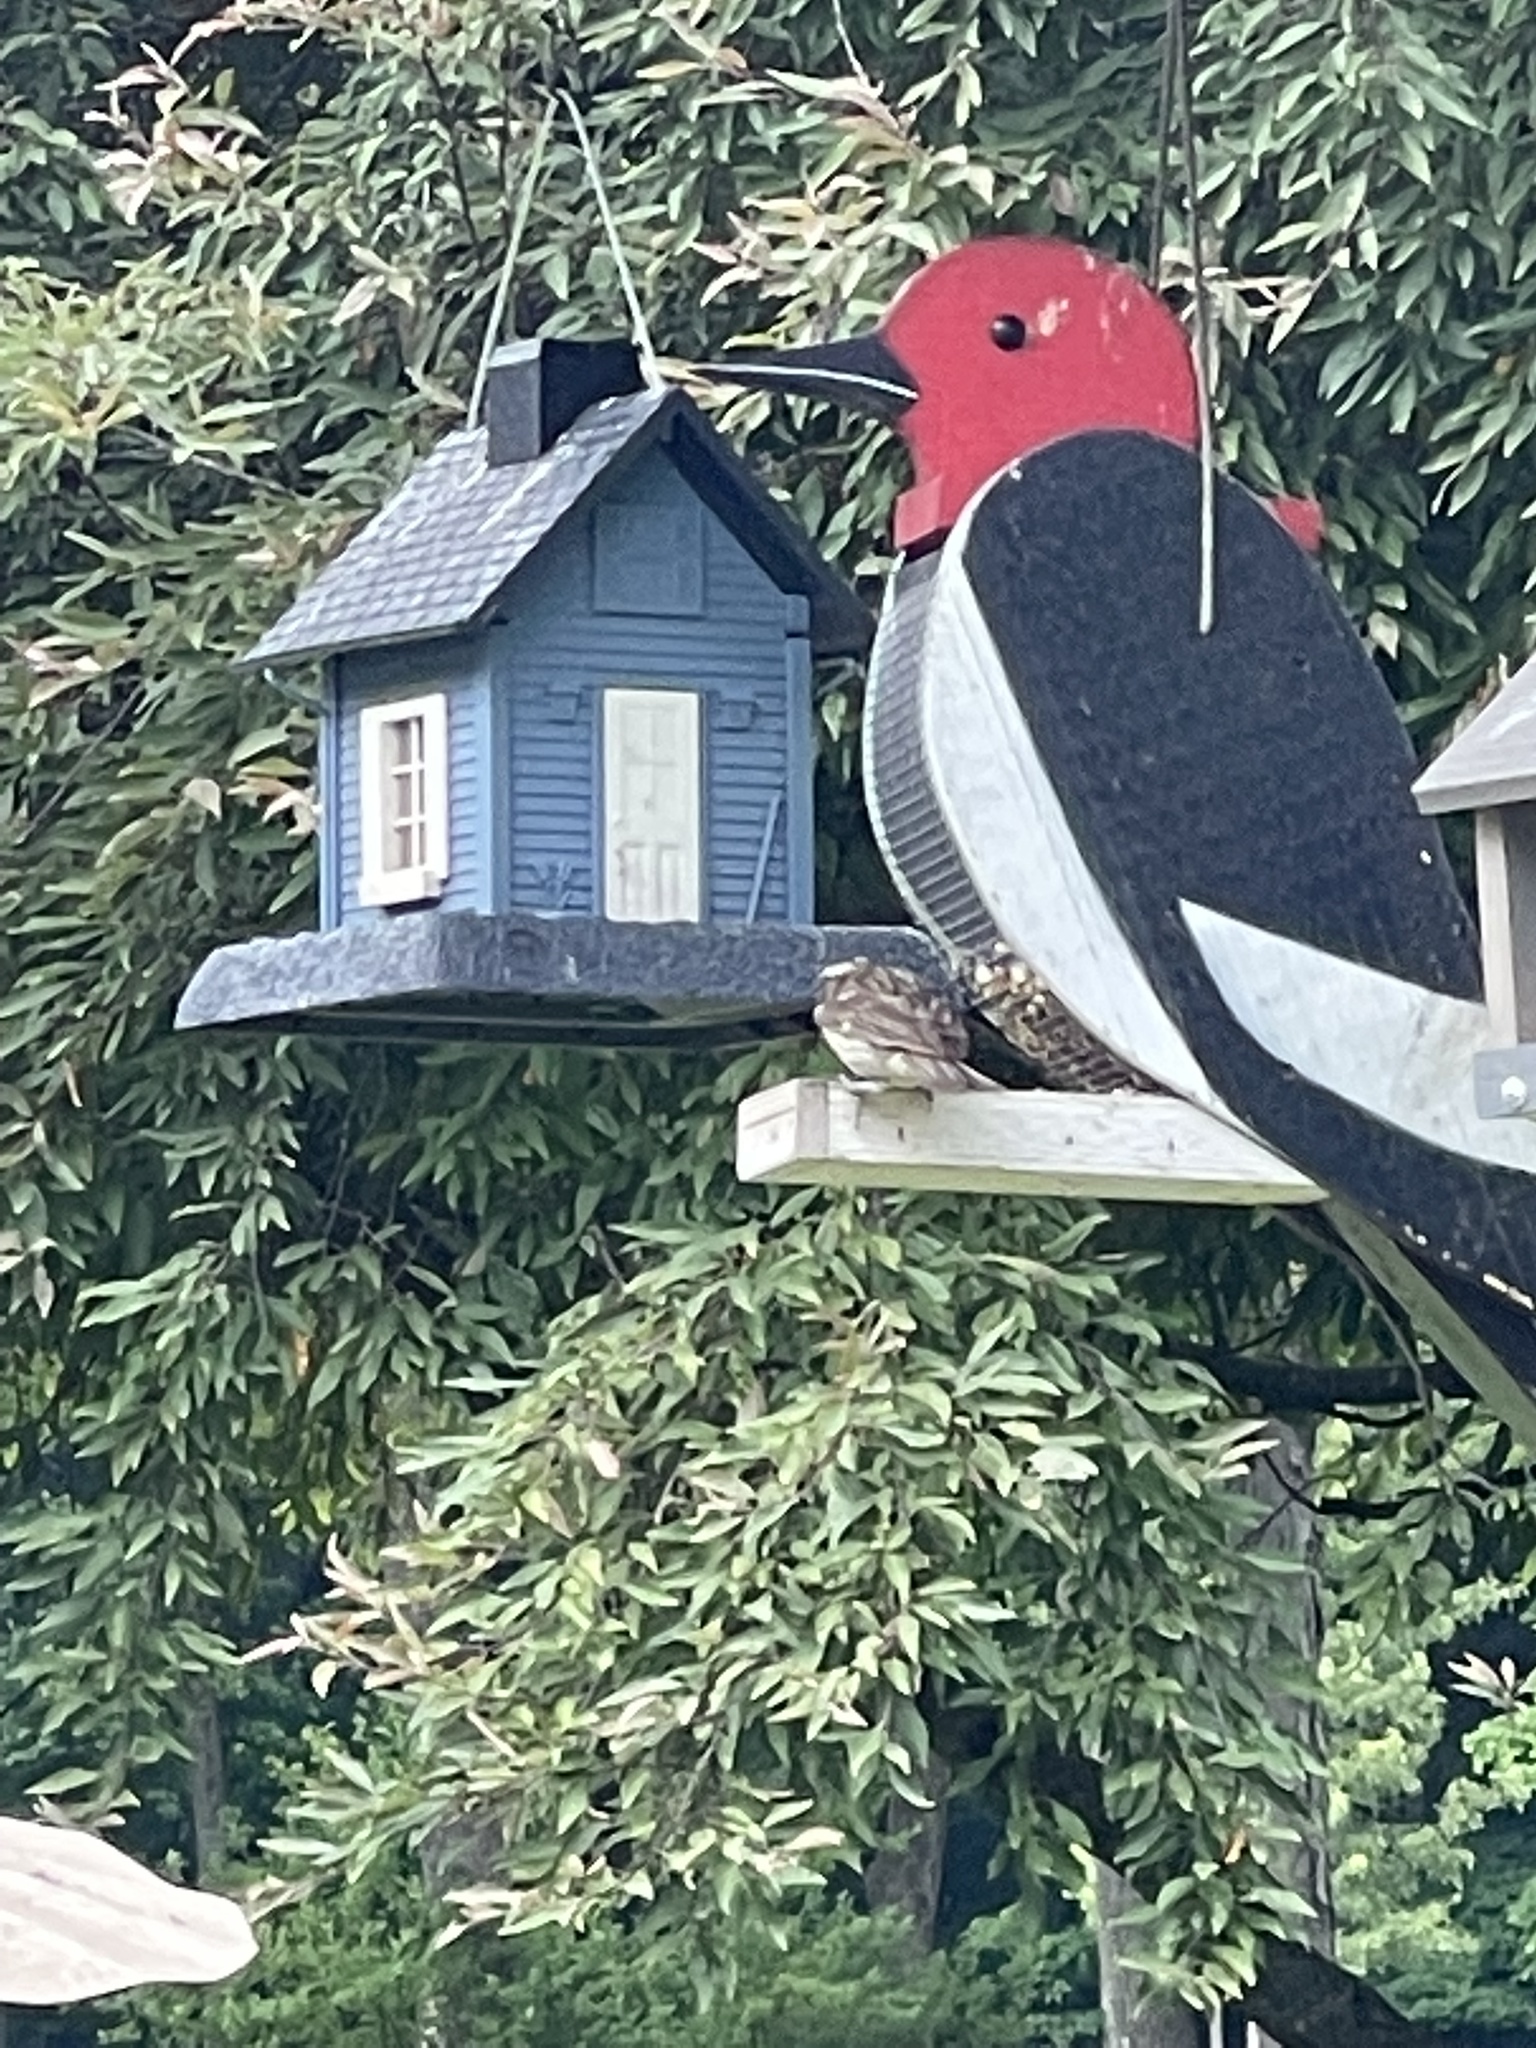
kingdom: Animalia
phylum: Chordata
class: Aves
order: Passeriformes
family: Cardinalidae
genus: Pheucticus
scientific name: Pheucticus ludovicianus
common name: Rose-breasted grosbeak
